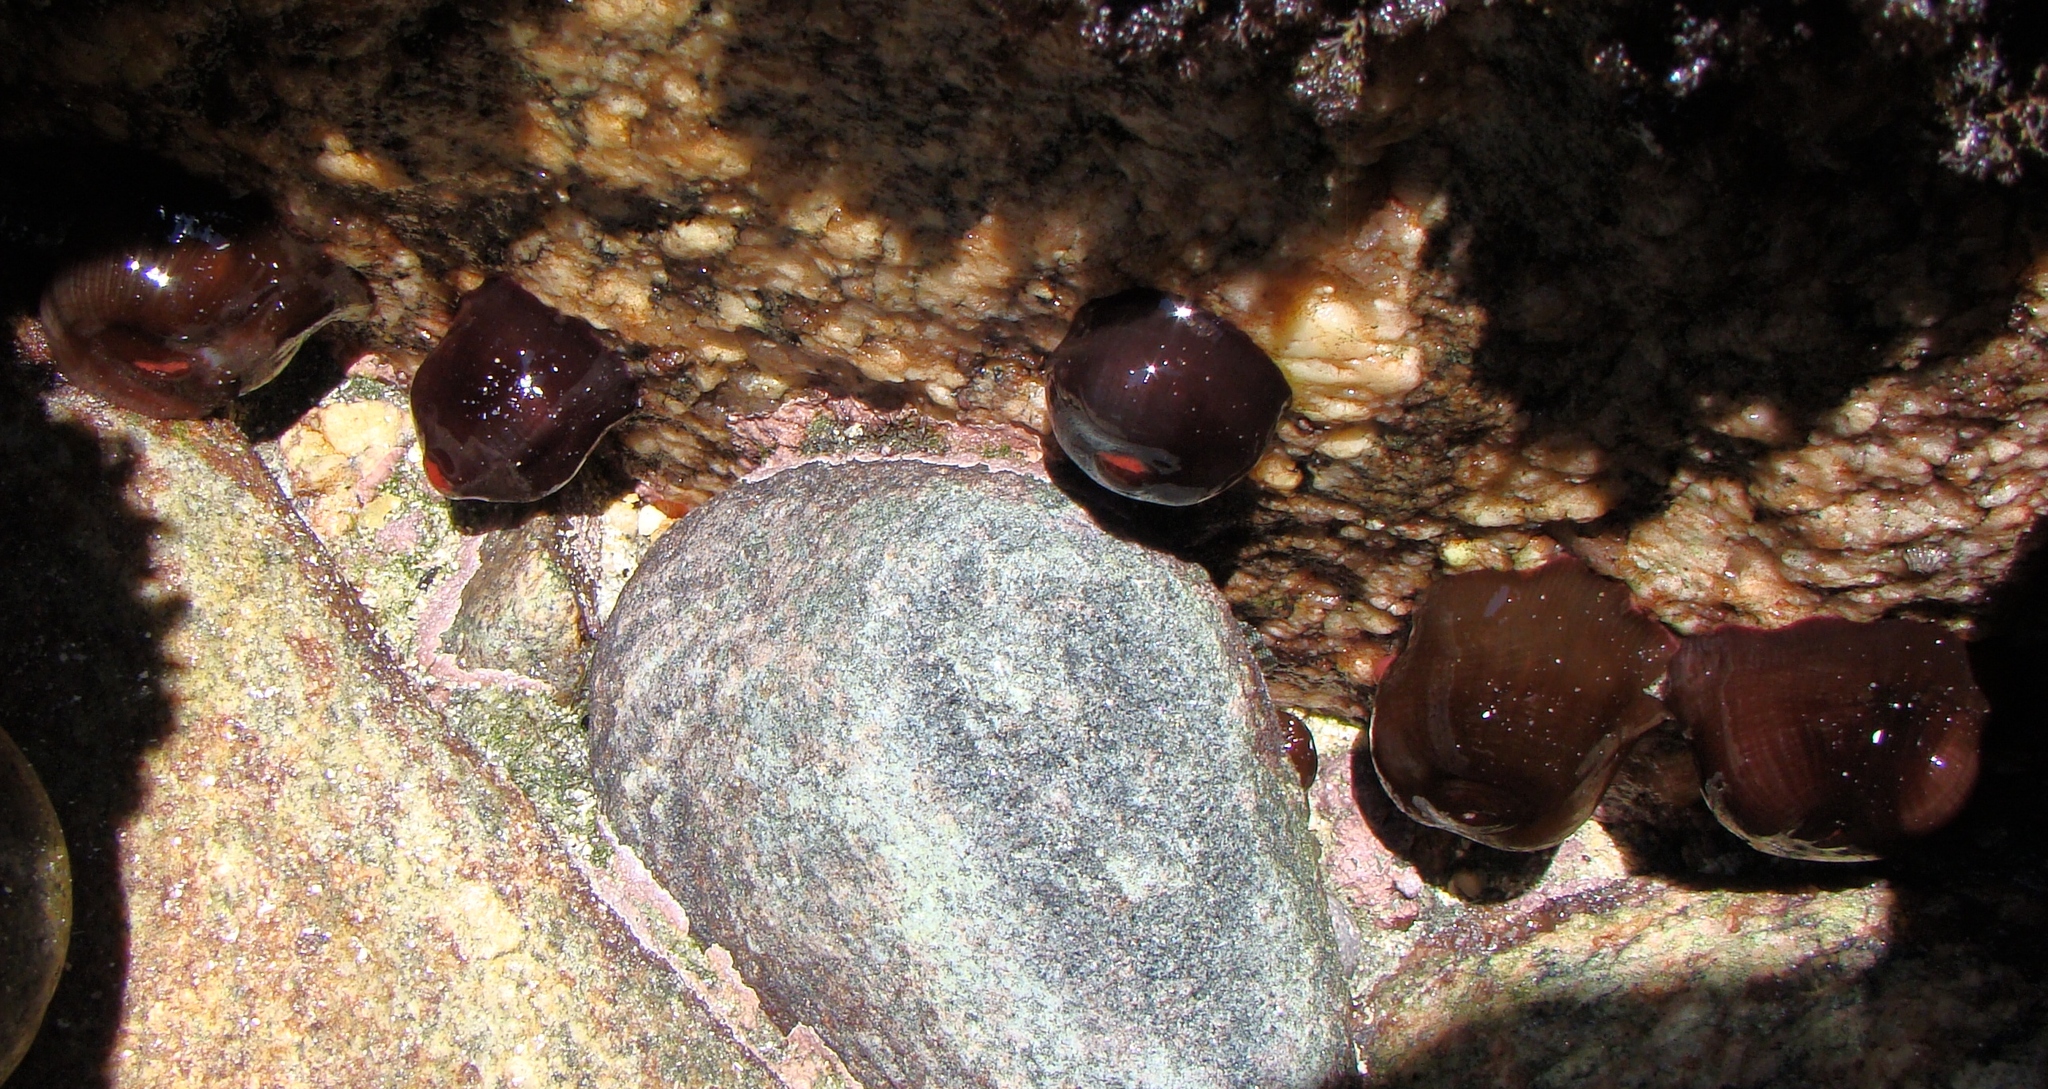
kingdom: Animalia
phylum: Cnidaria
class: Anthozoa
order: Actiniaria
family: Actiniidae
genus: Actinia
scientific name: Actinia tenebrosa
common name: Waratah anemone
